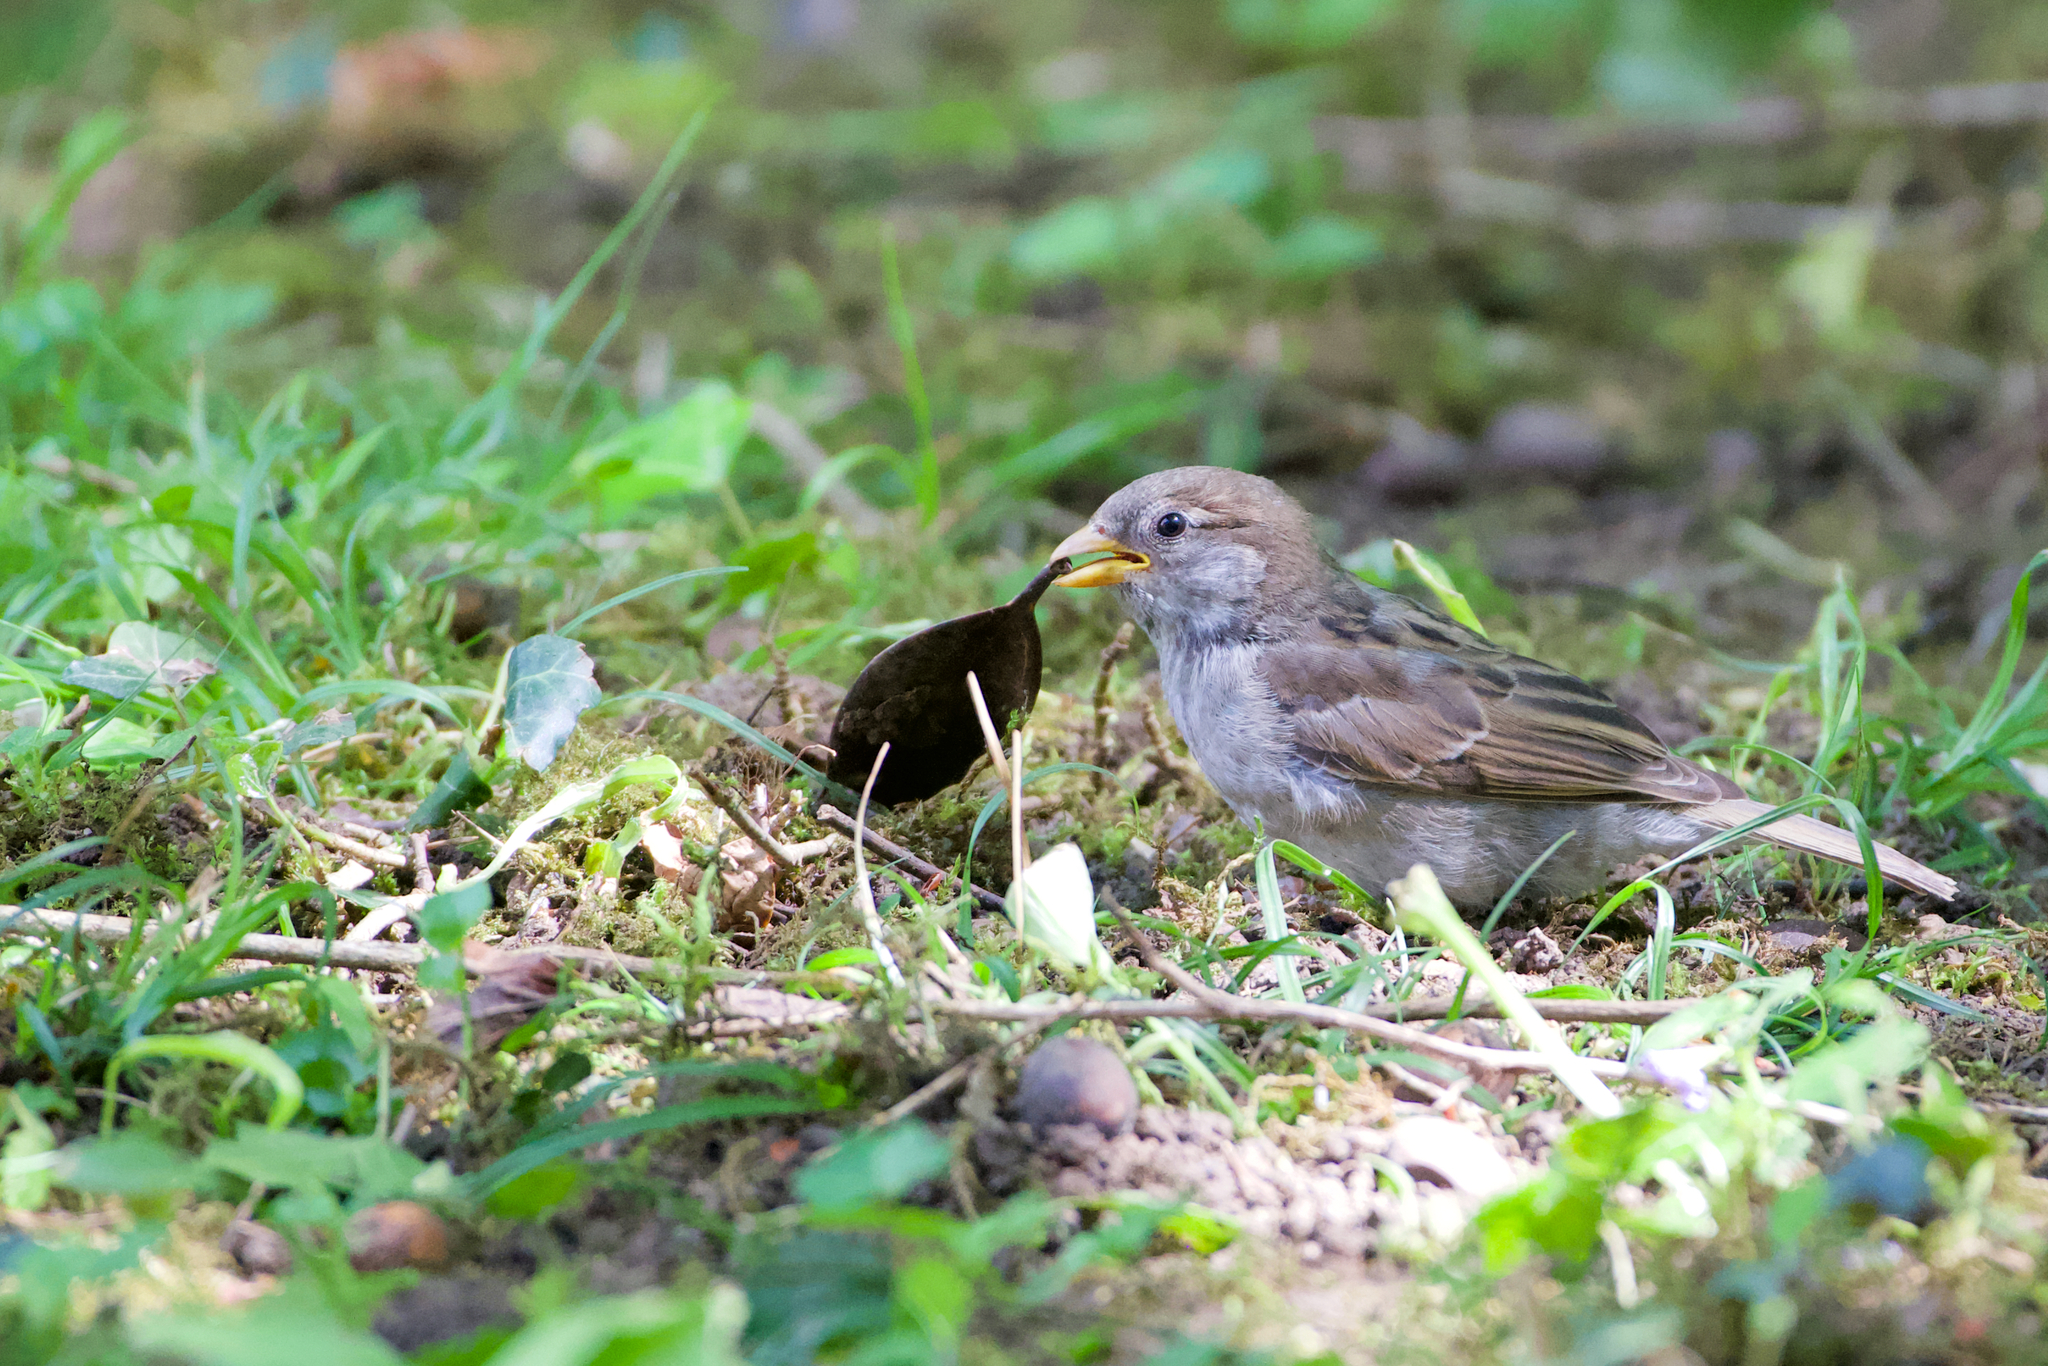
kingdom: Animalia
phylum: Chordata
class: Aves
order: Passeriformes
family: Passeridae
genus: Passer
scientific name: Passer domesticus
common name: House sparrow
